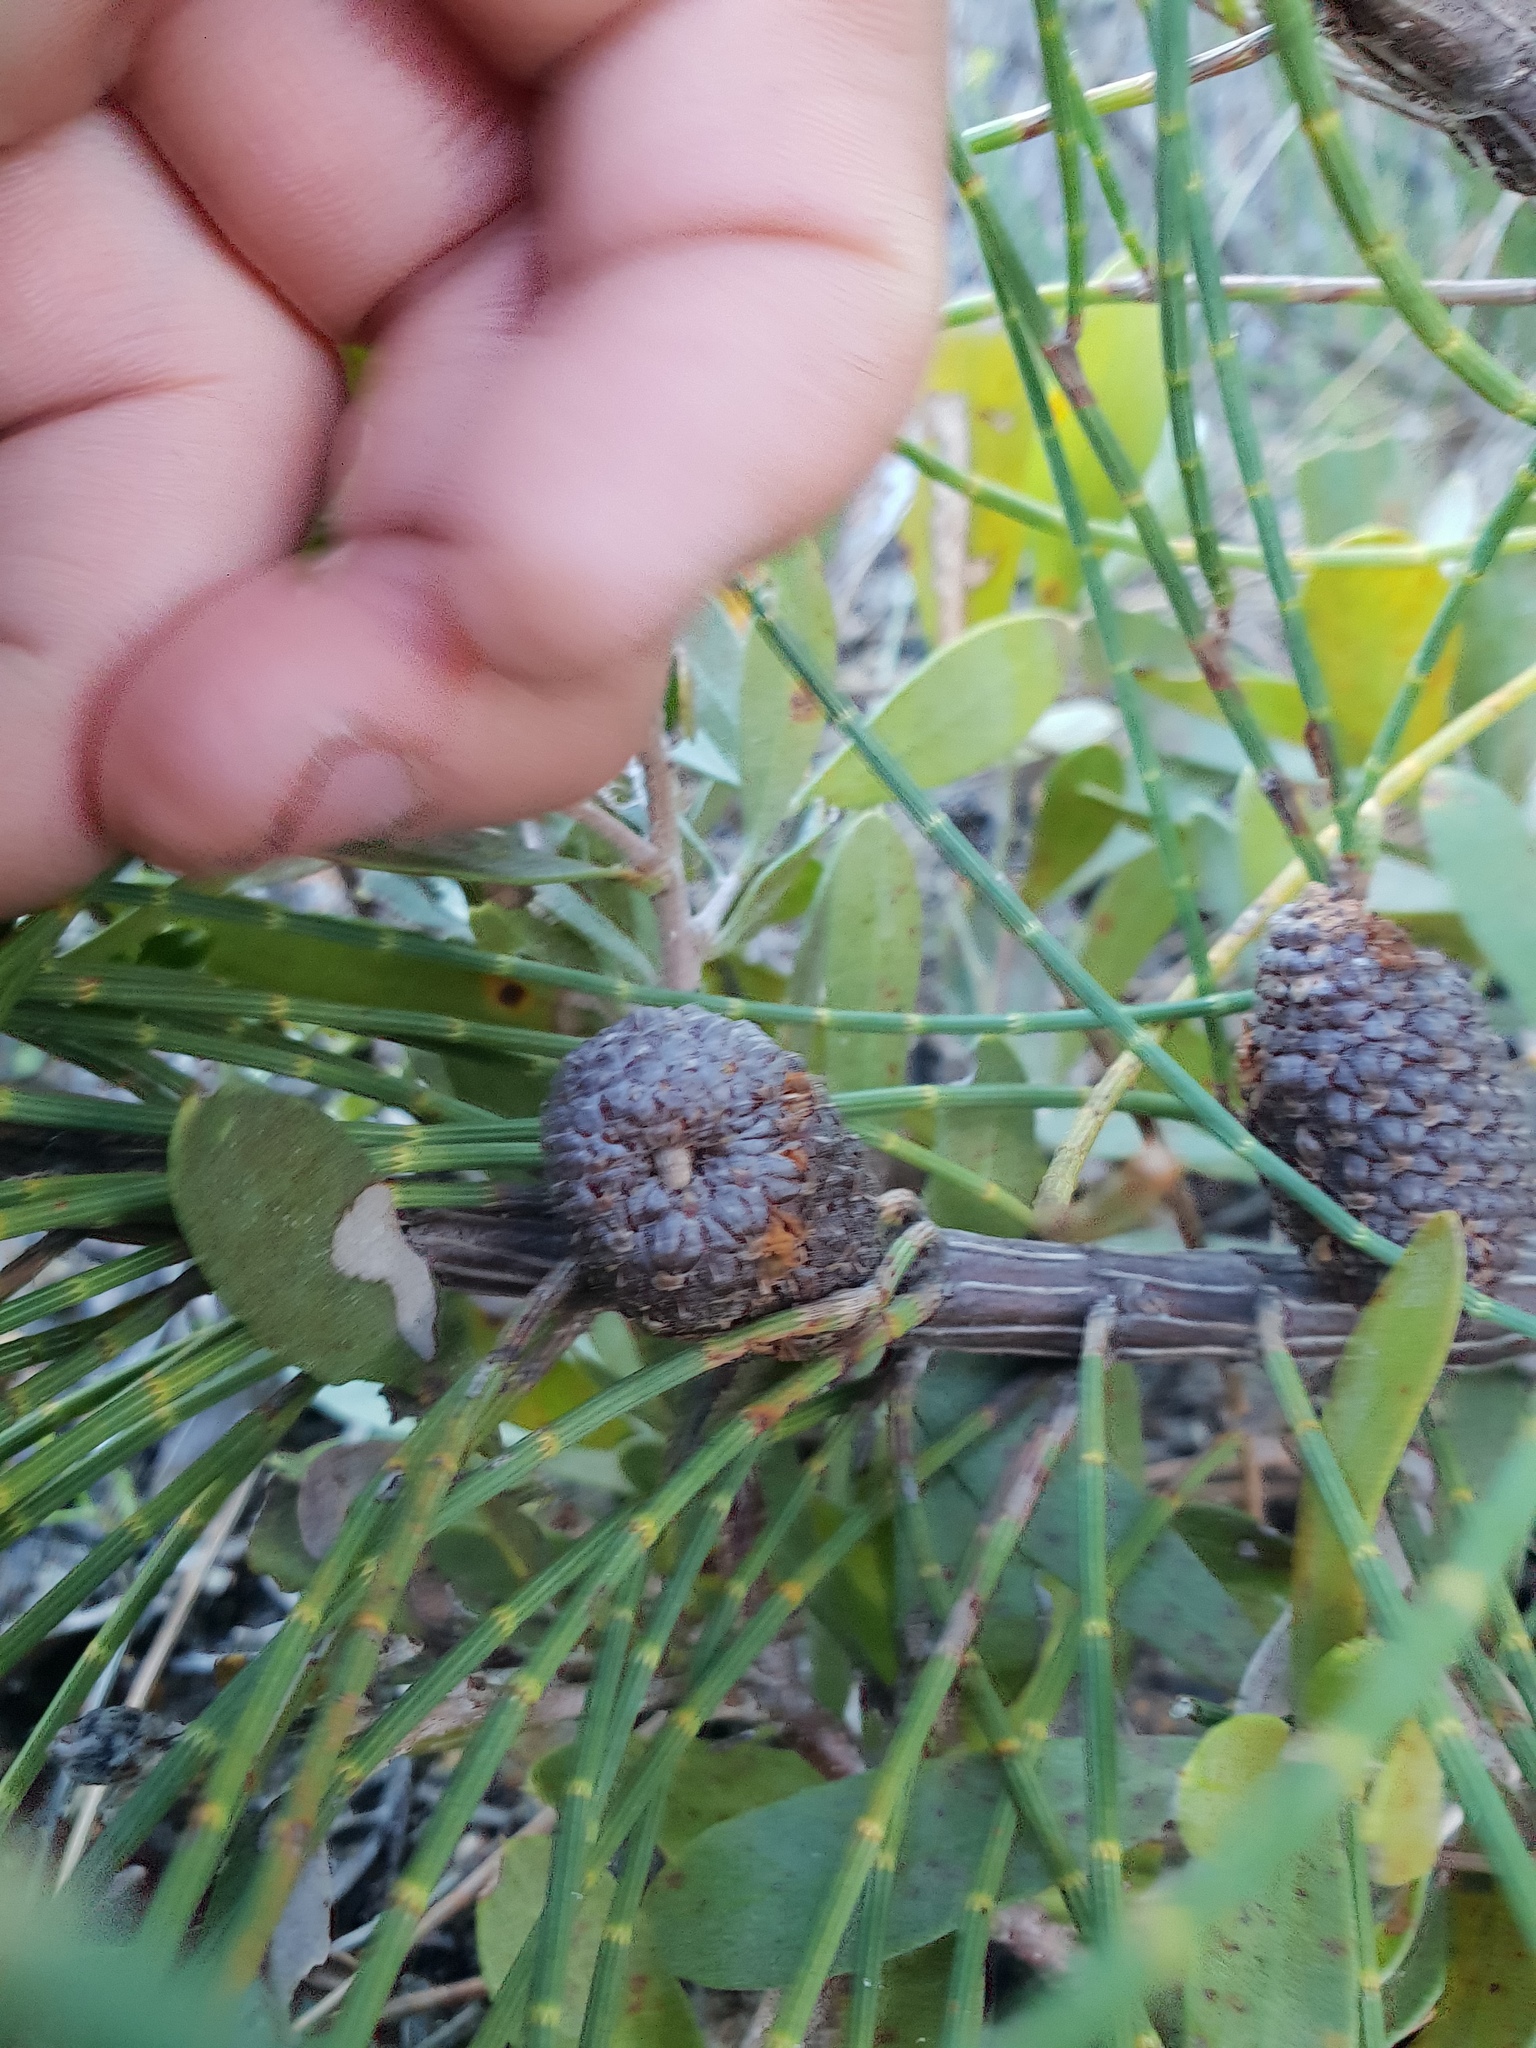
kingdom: Plantae
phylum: Tracheophyta
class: Magnoliopsida
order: Fagales
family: Casuarinaceae
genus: Allocasuarina
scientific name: Allocasuarina humilis
